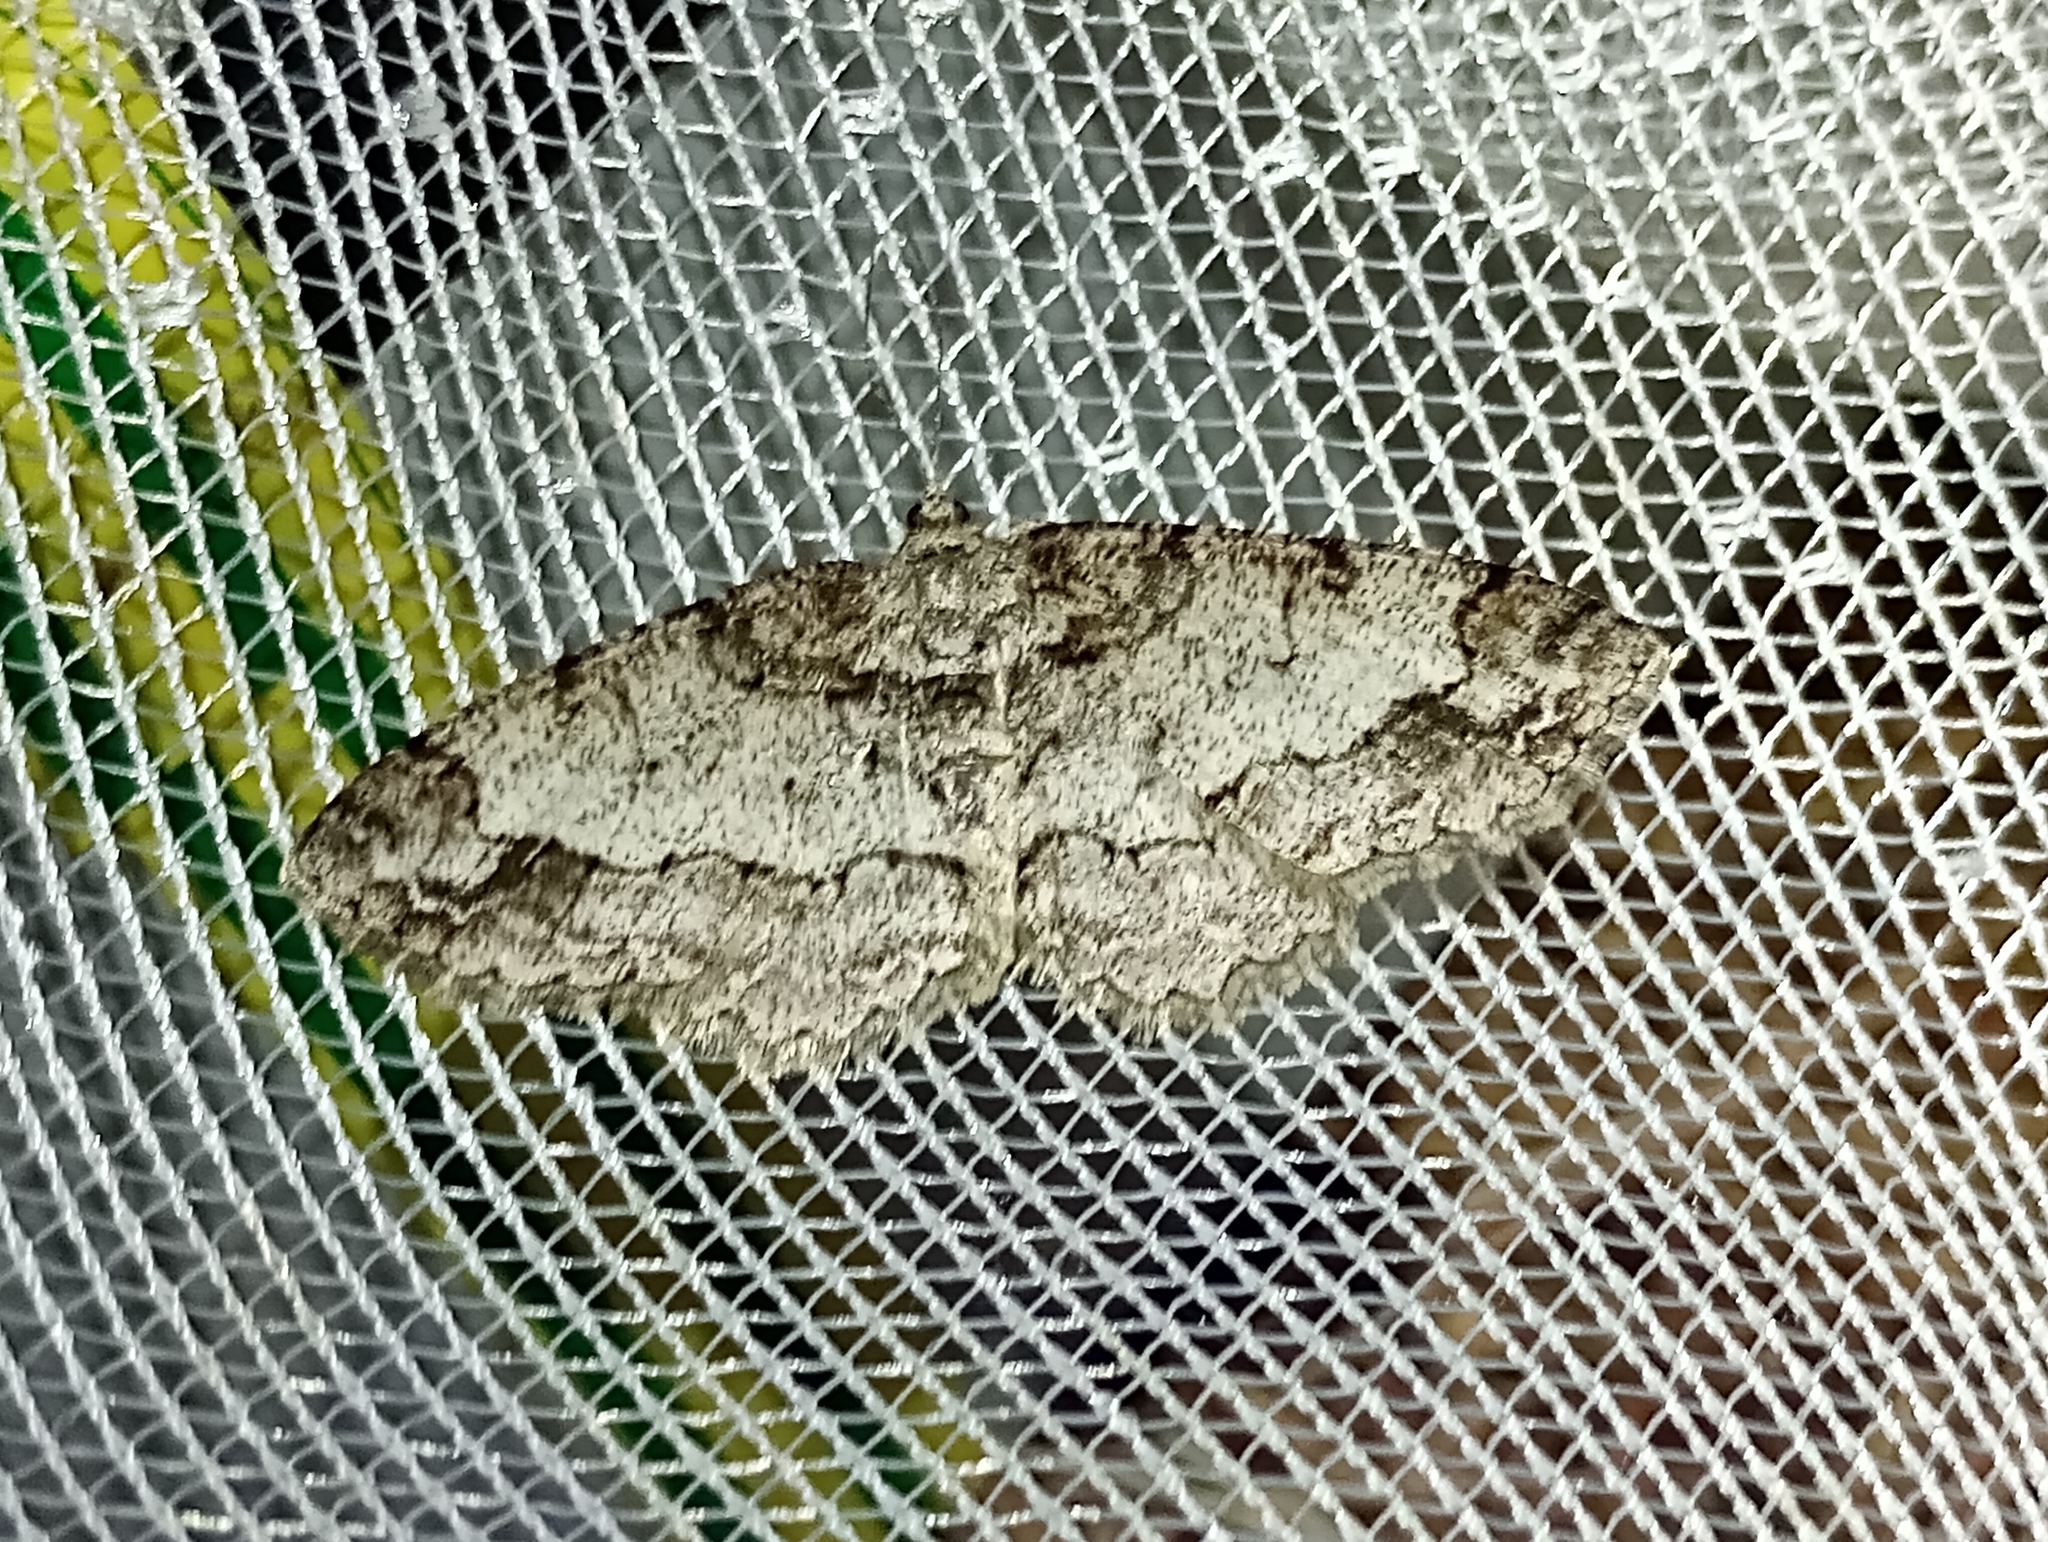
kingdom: Animalia
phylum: Arthropoda
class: Insecta
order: Lepidoptera
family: Geometridae
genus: Paradarisa
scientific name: Paradarisa consonaria
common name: Square spot
